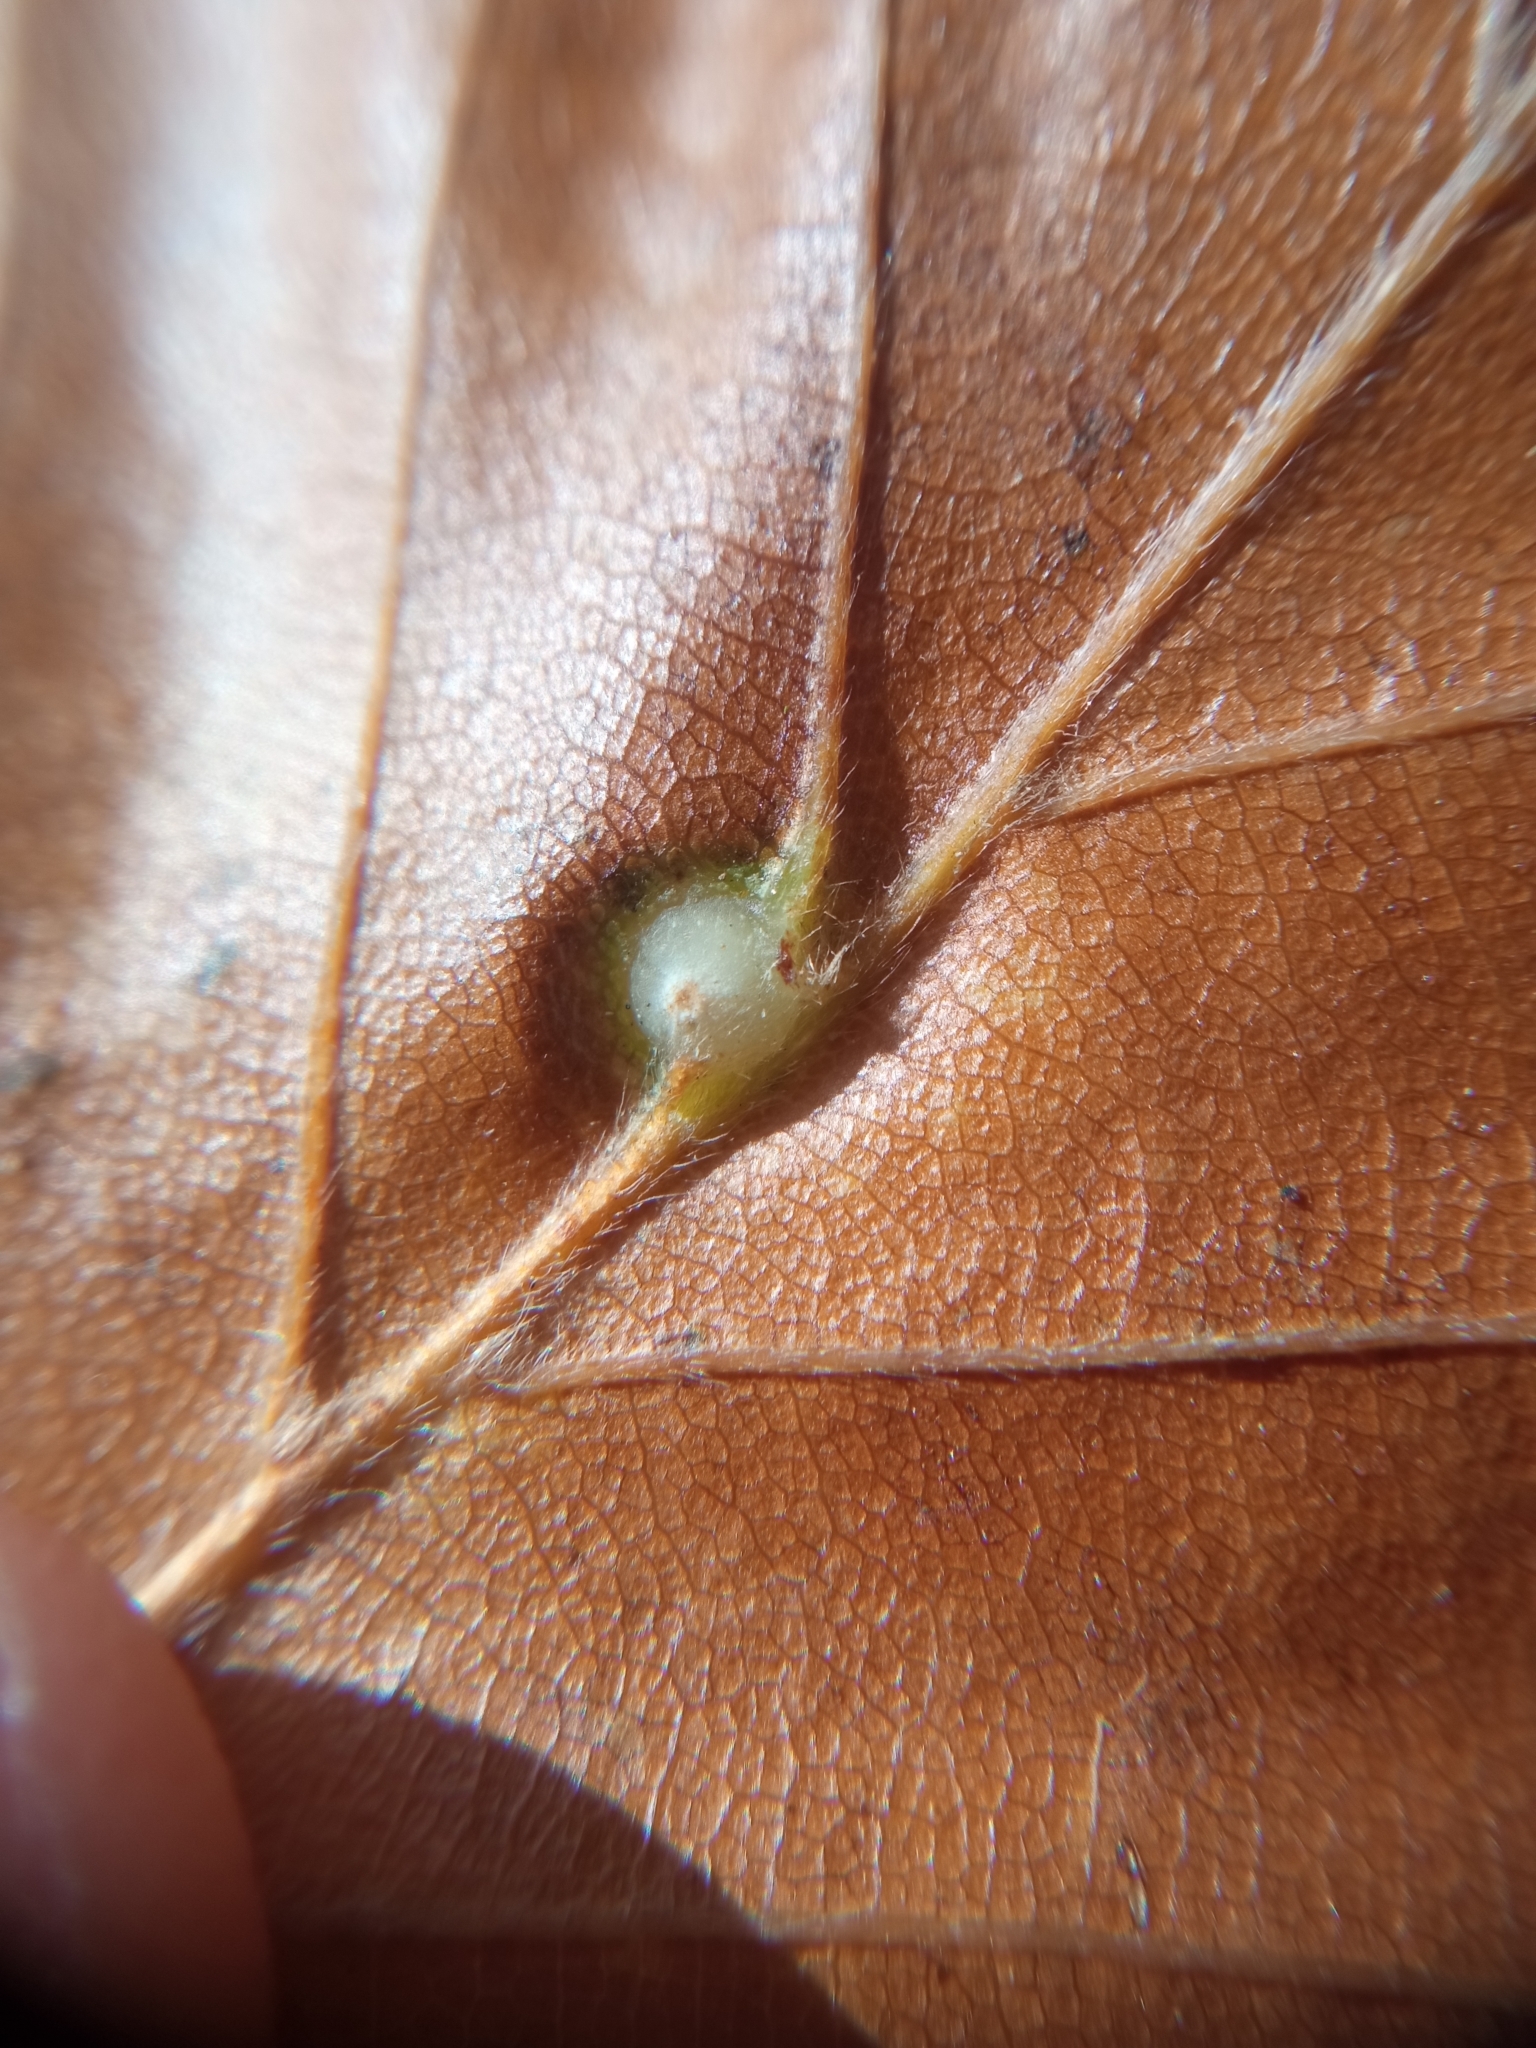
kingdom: Animalia
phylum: Arthropoda
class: Insecta
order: Diptera
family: Cecidomyiidae
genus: Mikiola
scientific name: Mikiola fagi
